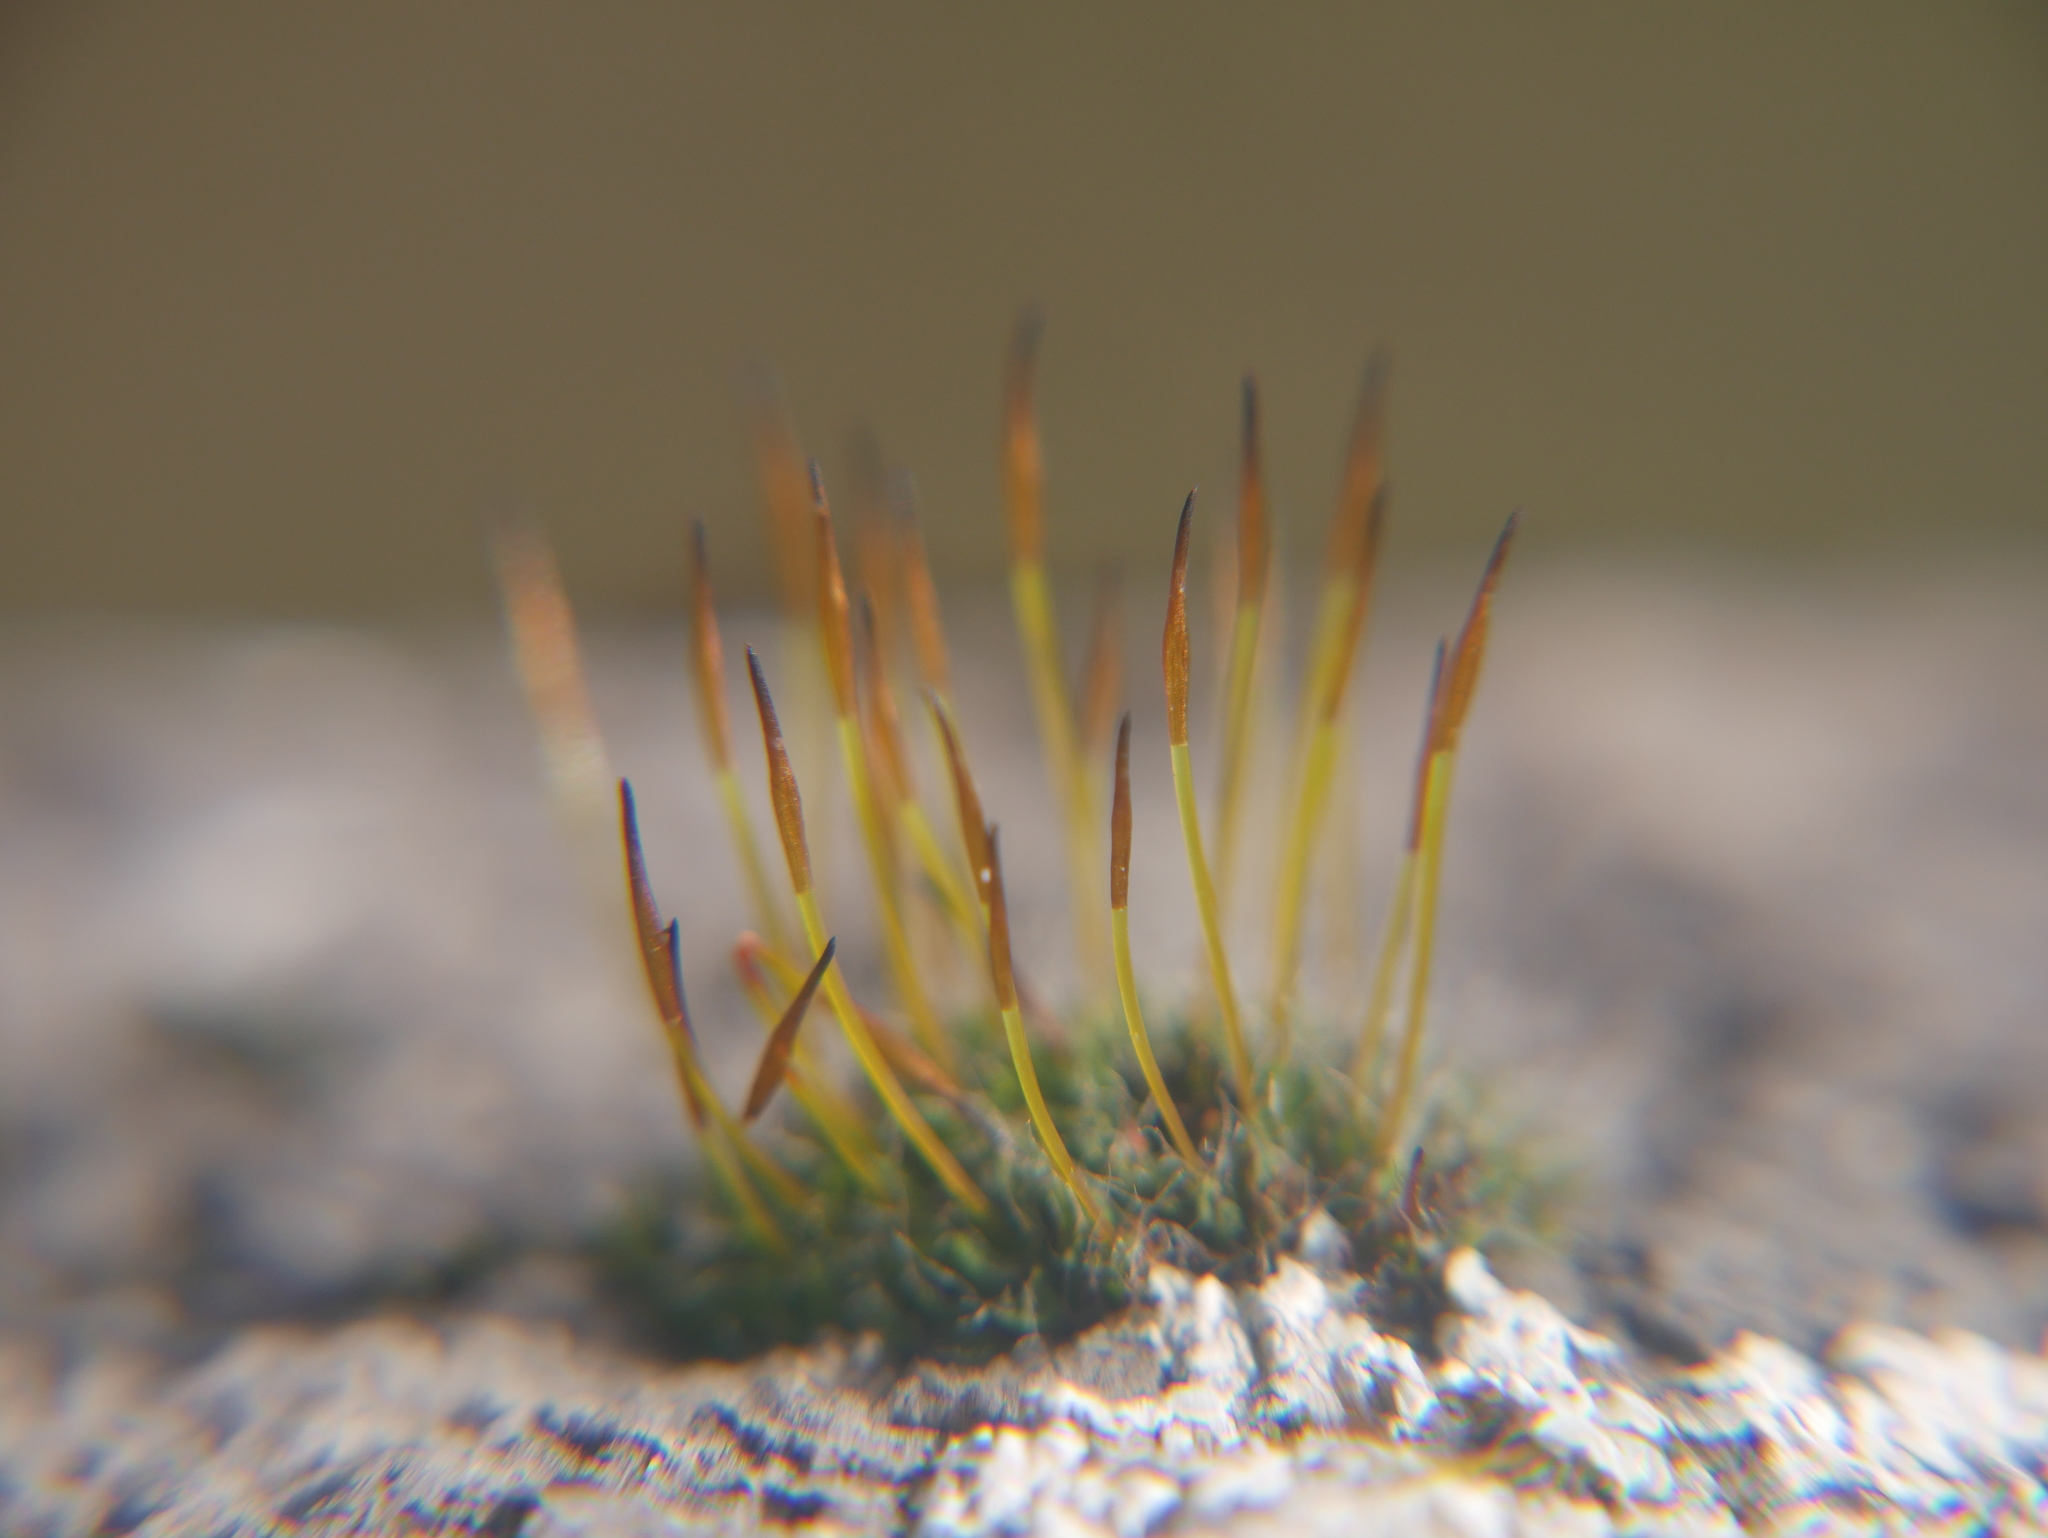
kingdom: Plantae
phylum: Bryophyta
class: Bryopsida
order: Pottiales
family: Pottiaceae
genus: Tortula
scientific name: Tortula muralis
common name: Wall screw-moss
